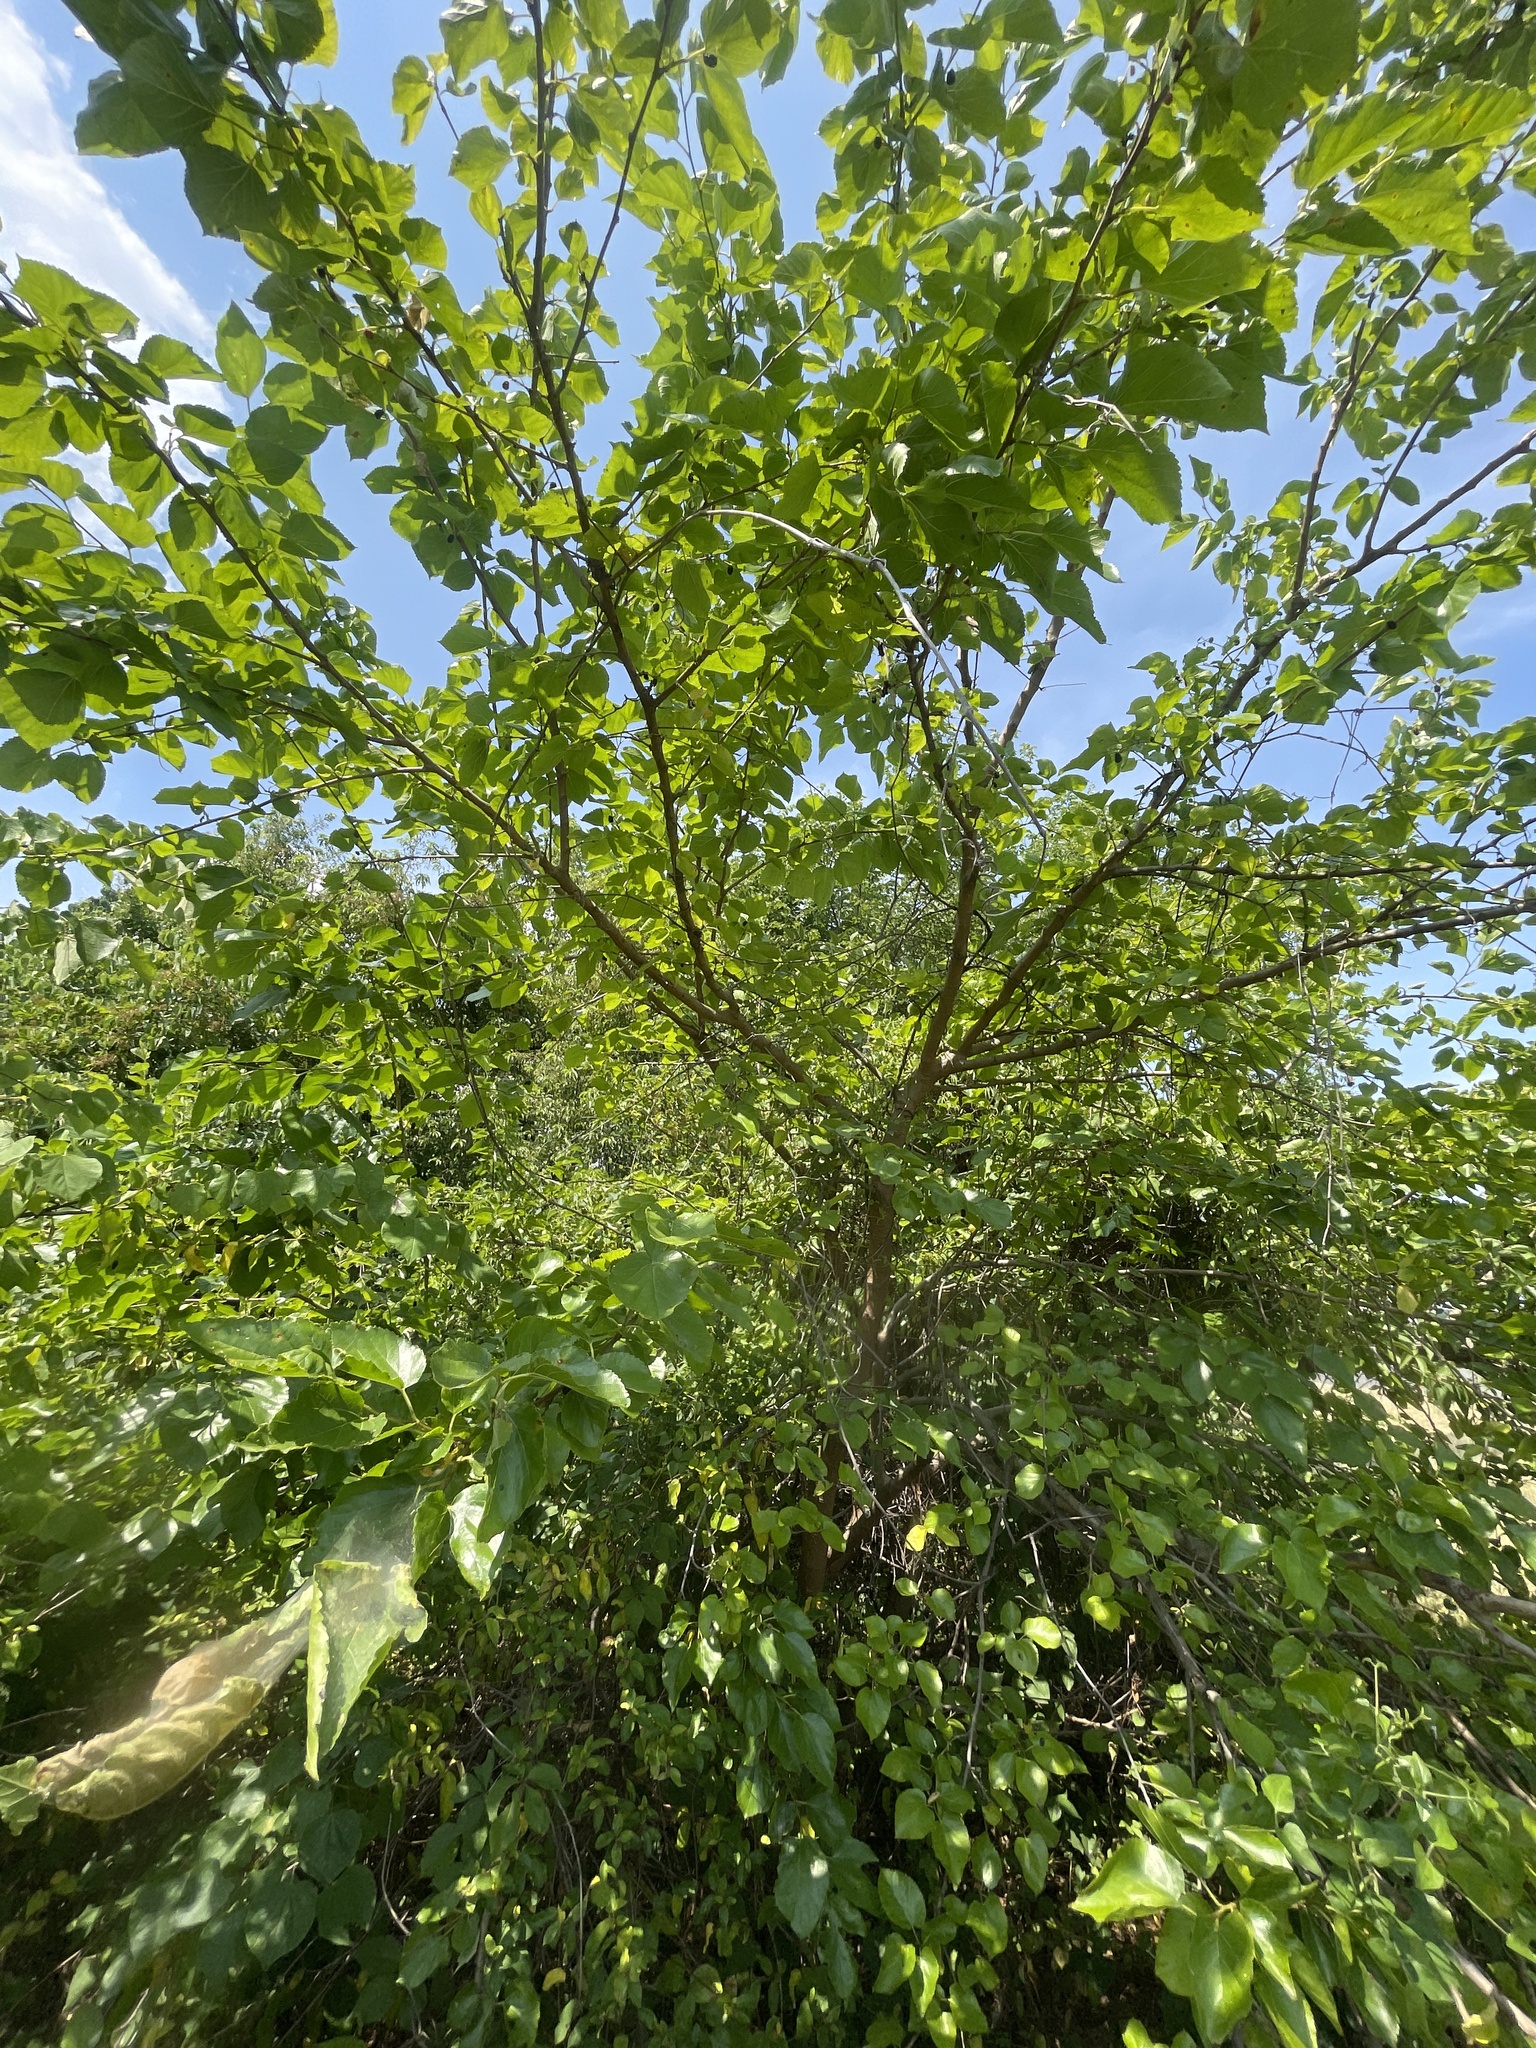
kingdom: Plantae
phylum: Tracheophyta
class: Magnoliopsida
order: Rosales
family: Moraceae
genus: Morus
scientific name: Morus alba
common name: White mulberry
